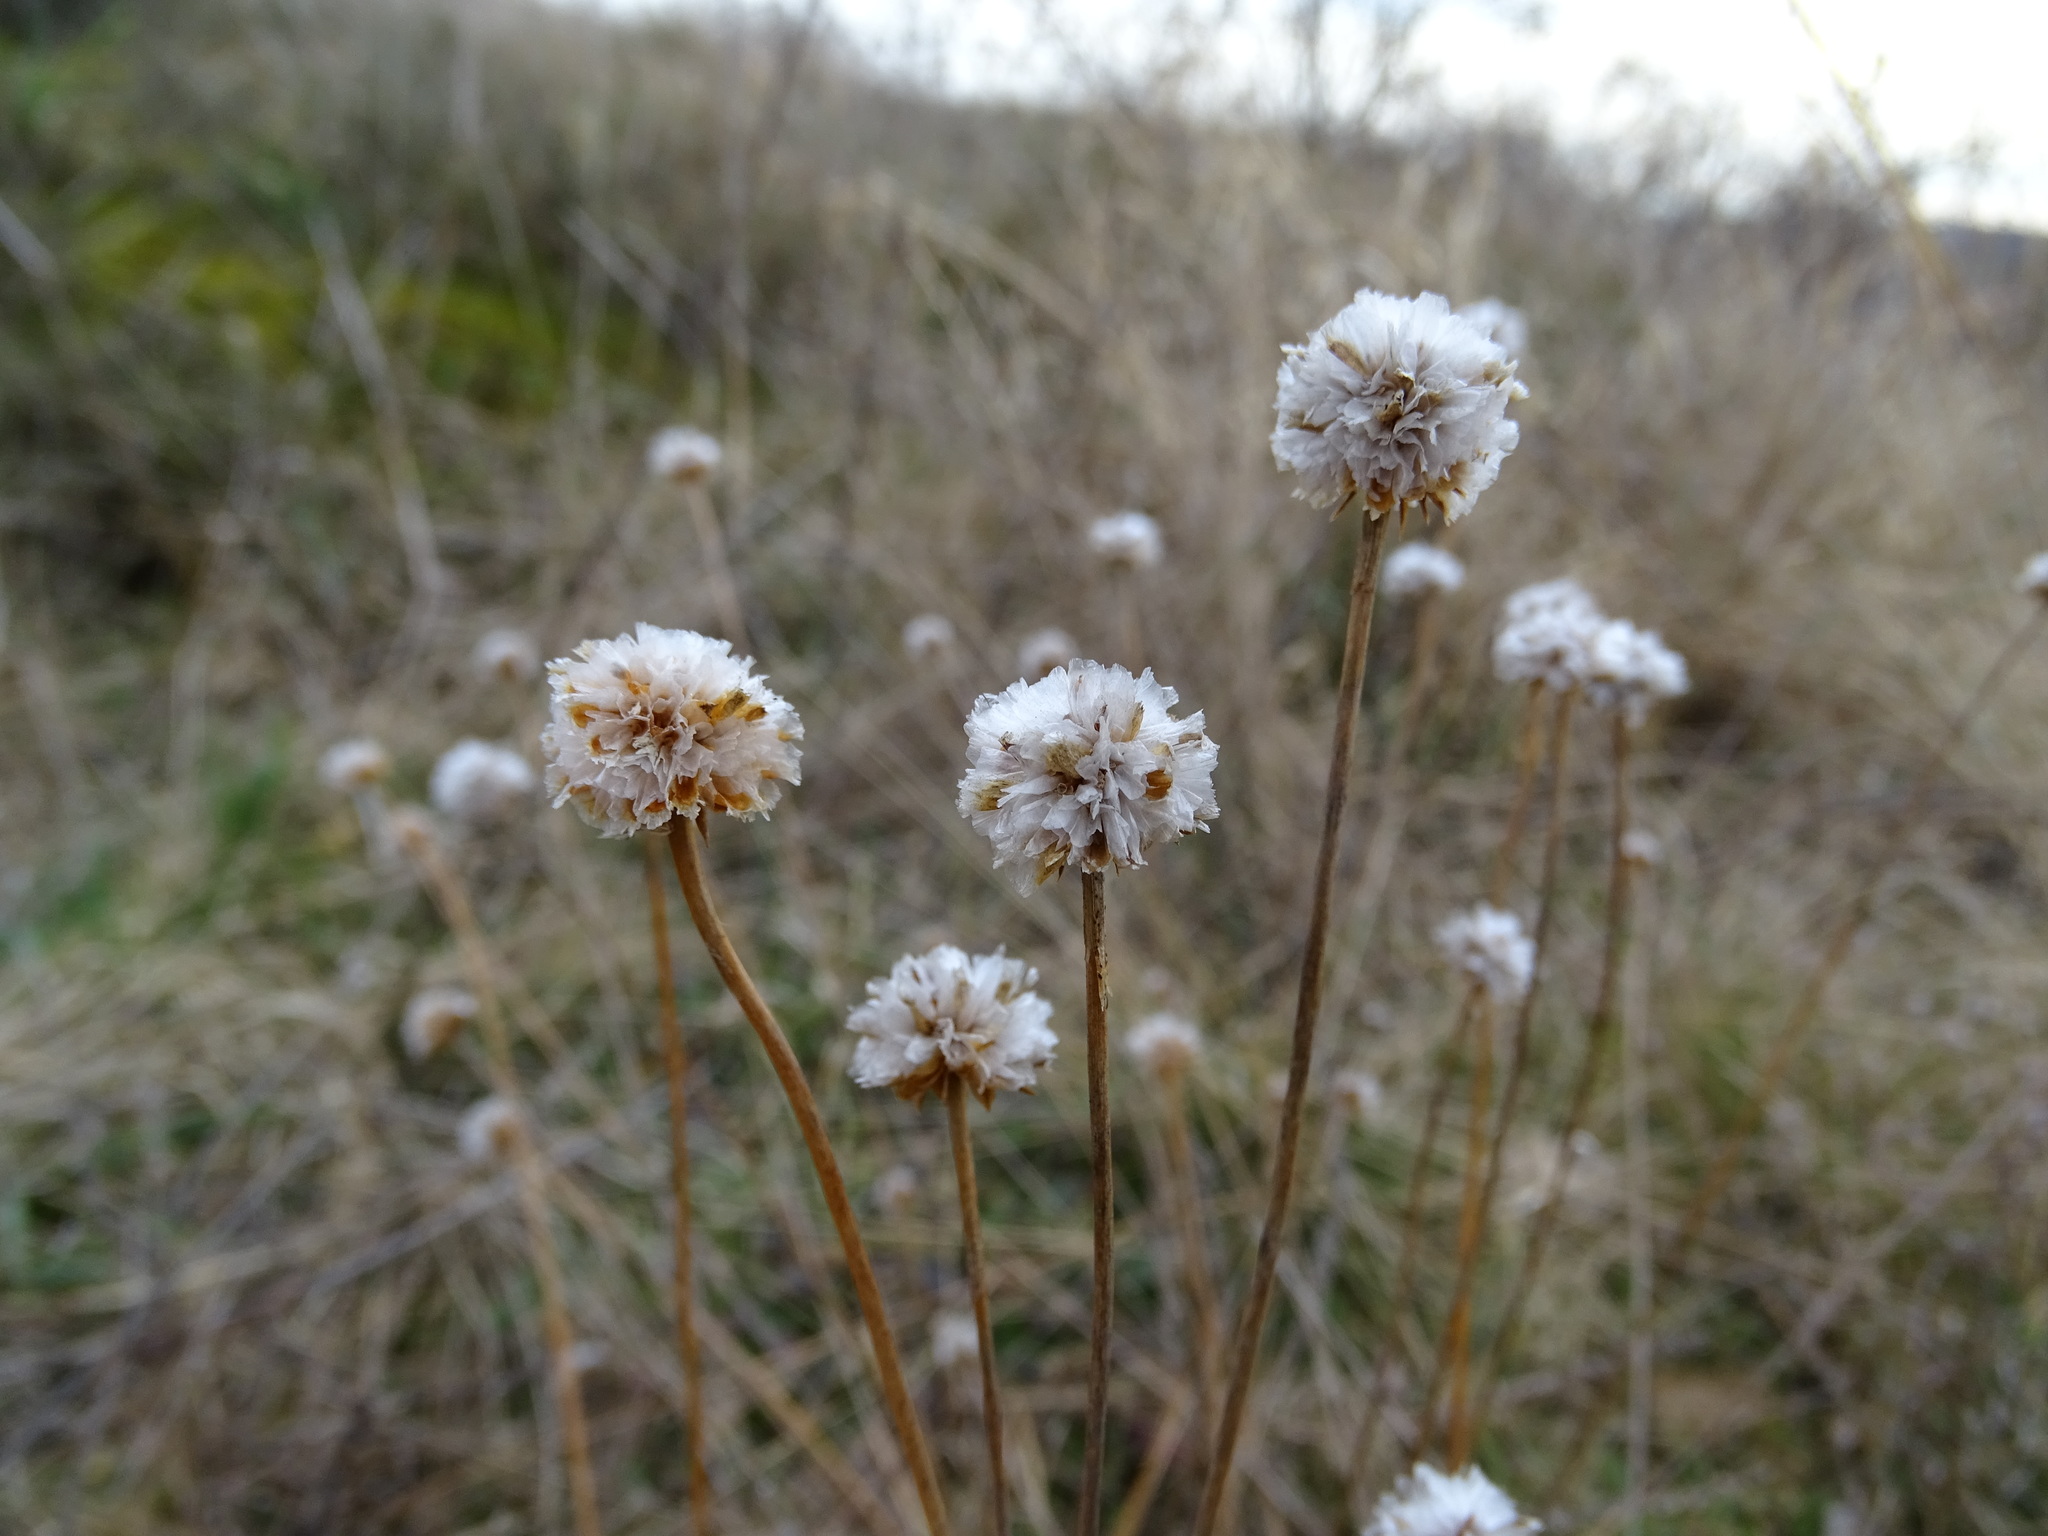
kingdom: Plantae
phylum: Tracheophyta
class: Magnoliopsida
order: Caryophyllales
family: Plumbaginaceae
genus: Armeria
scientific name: Armeria maritima
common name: Thrift
